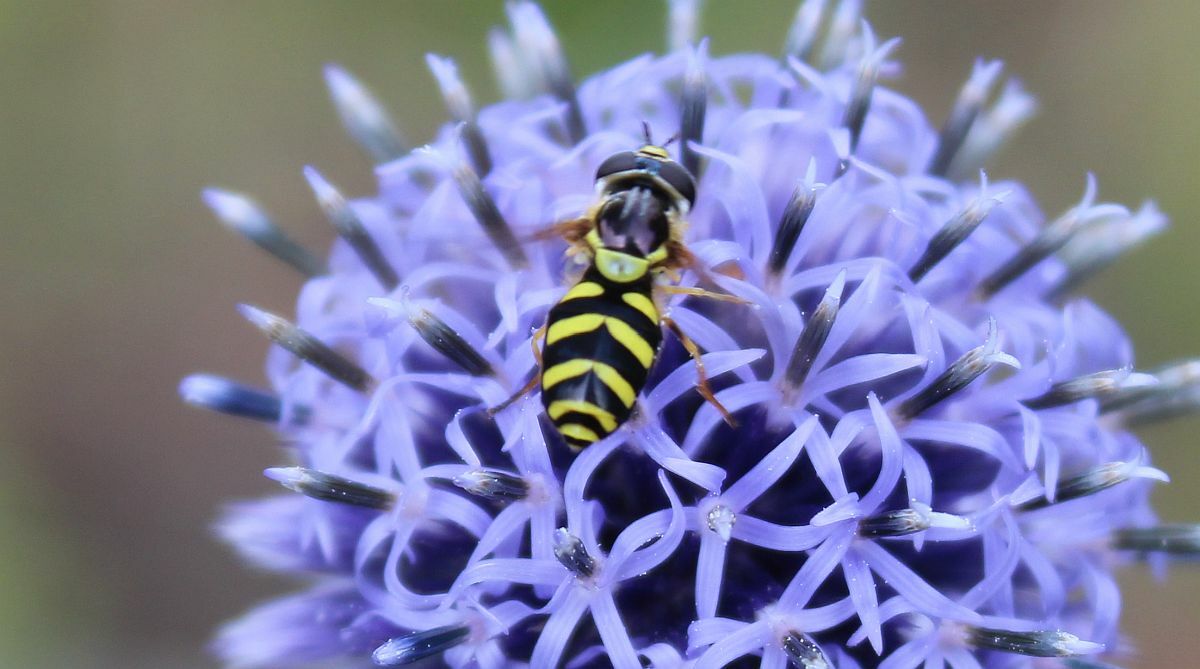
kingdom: Animalia
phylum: Arthropoda
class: Insecta
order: Diptera
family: Syrphidae
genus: Dasysyrphus
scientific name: Dasysyrphus albostriatus
